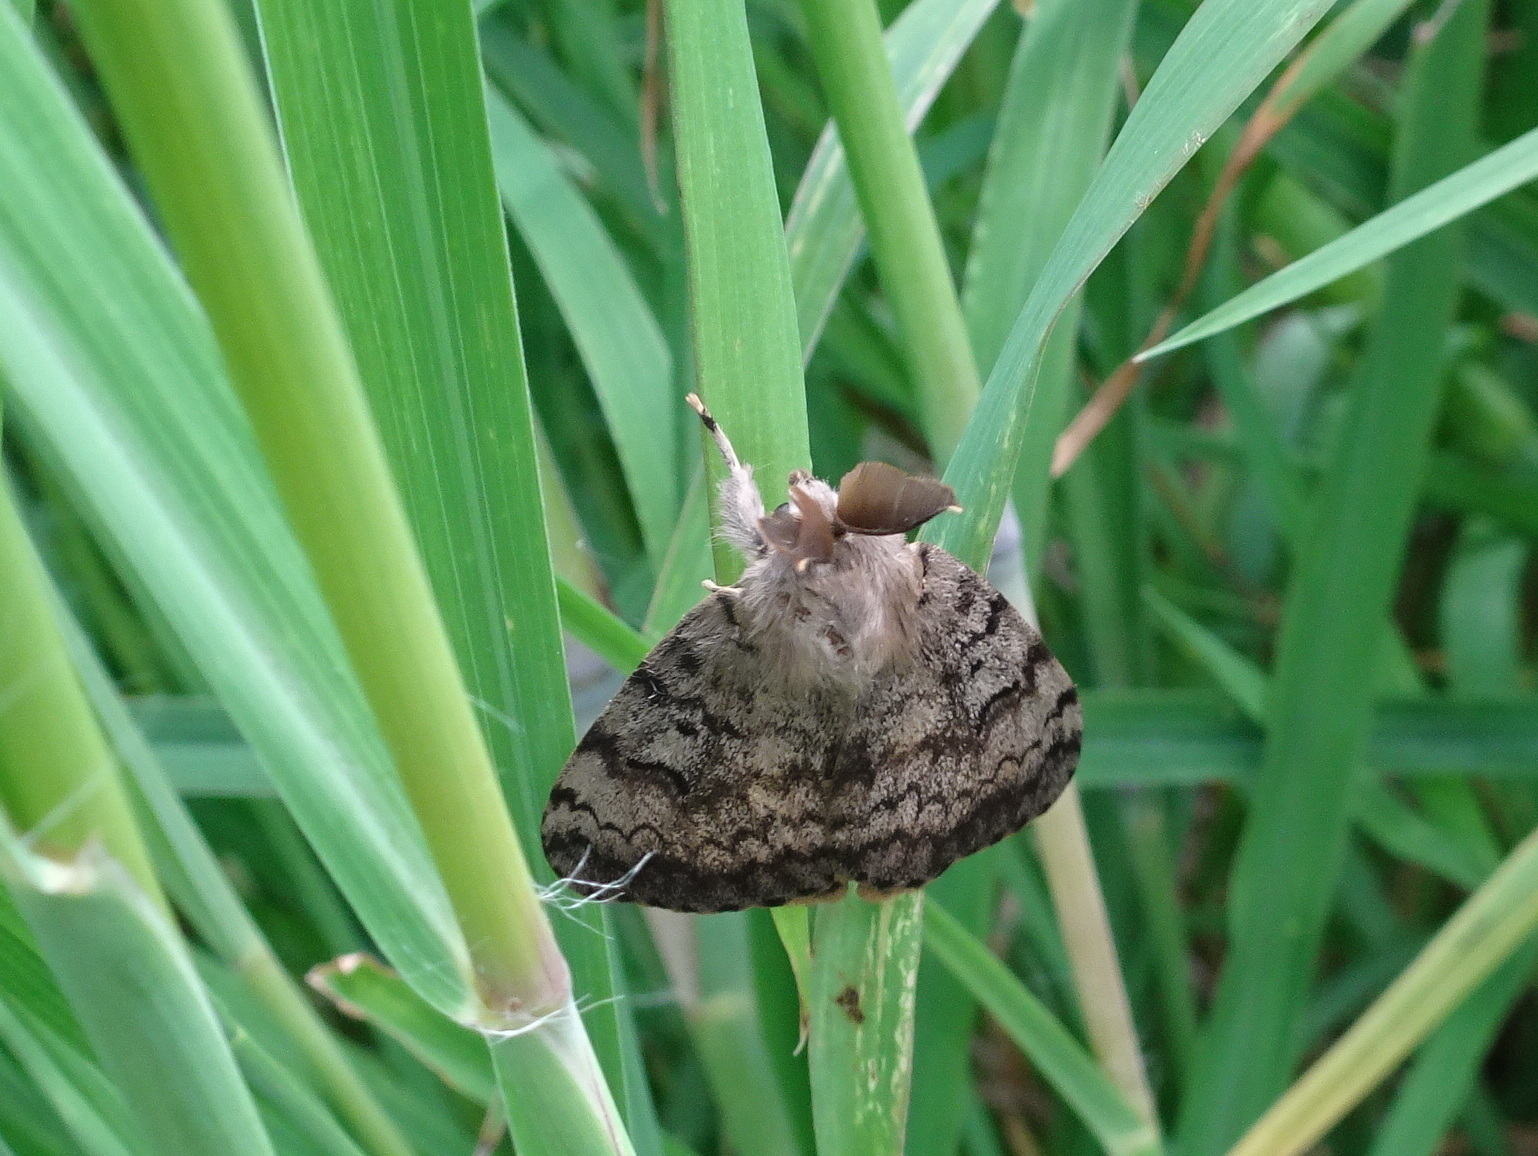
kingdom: Animalia
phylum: Arthropoda
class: Insecta
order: Lepidoptera
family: Erebidae
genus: Lymantria
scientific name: Lymantria dispar
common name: Gypsy moth
